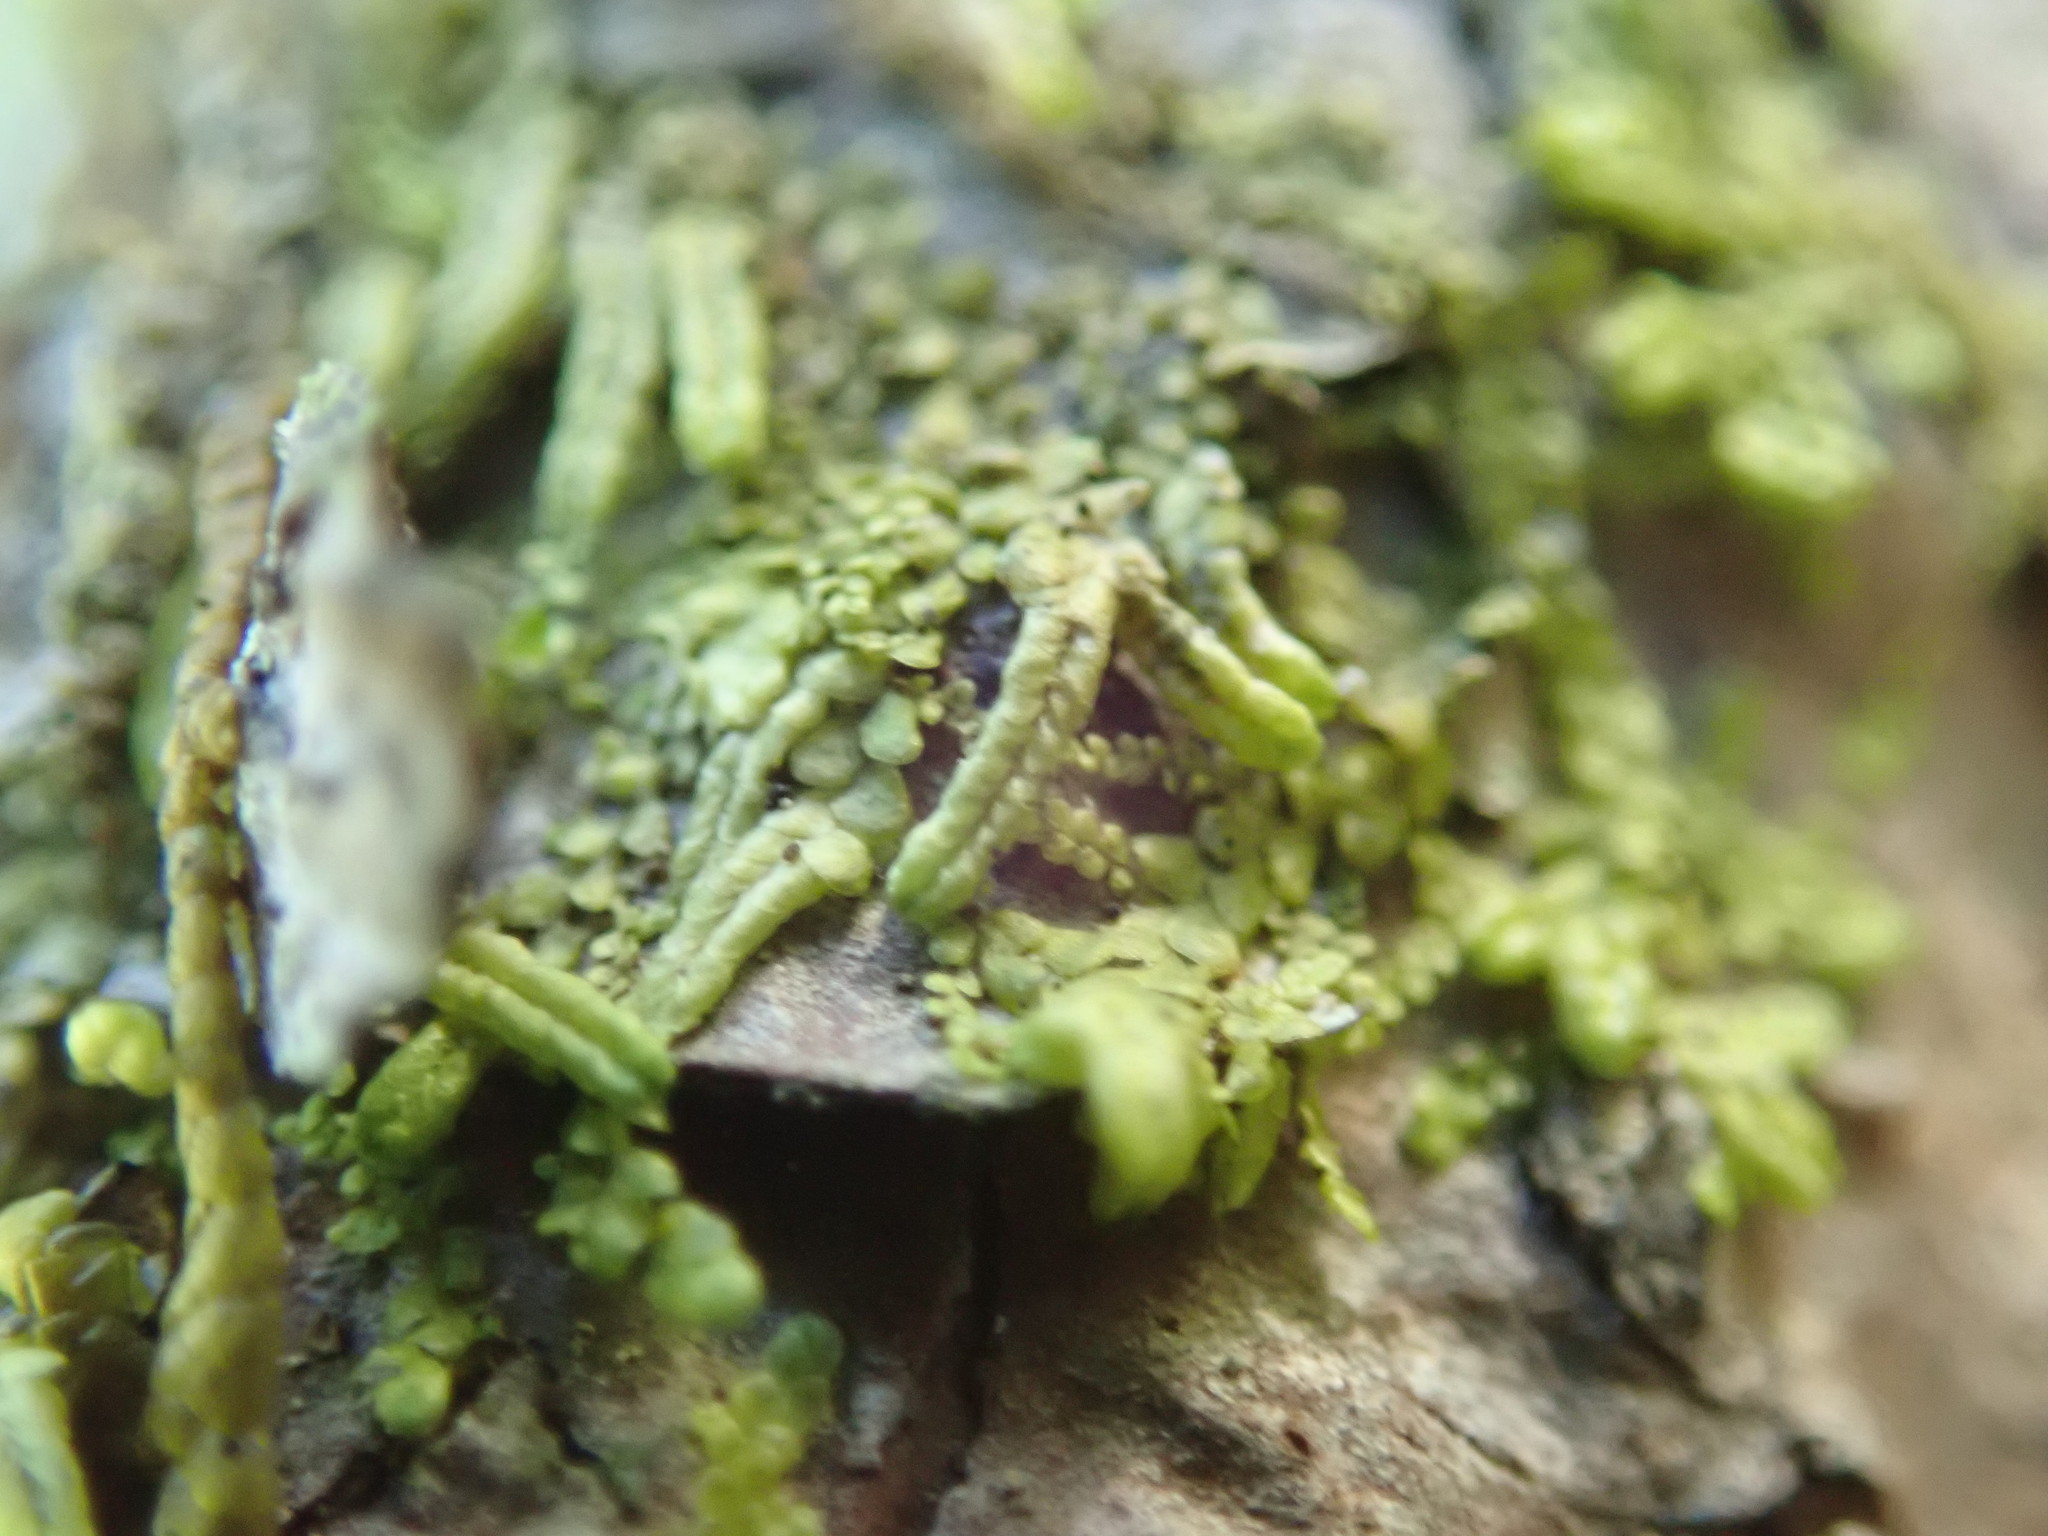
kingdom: Plantae
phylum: Marchantiophyta
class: Jungermanniopsida
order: Porellales
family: Radulaceae
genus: Radula
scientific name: Radula bolanderi
